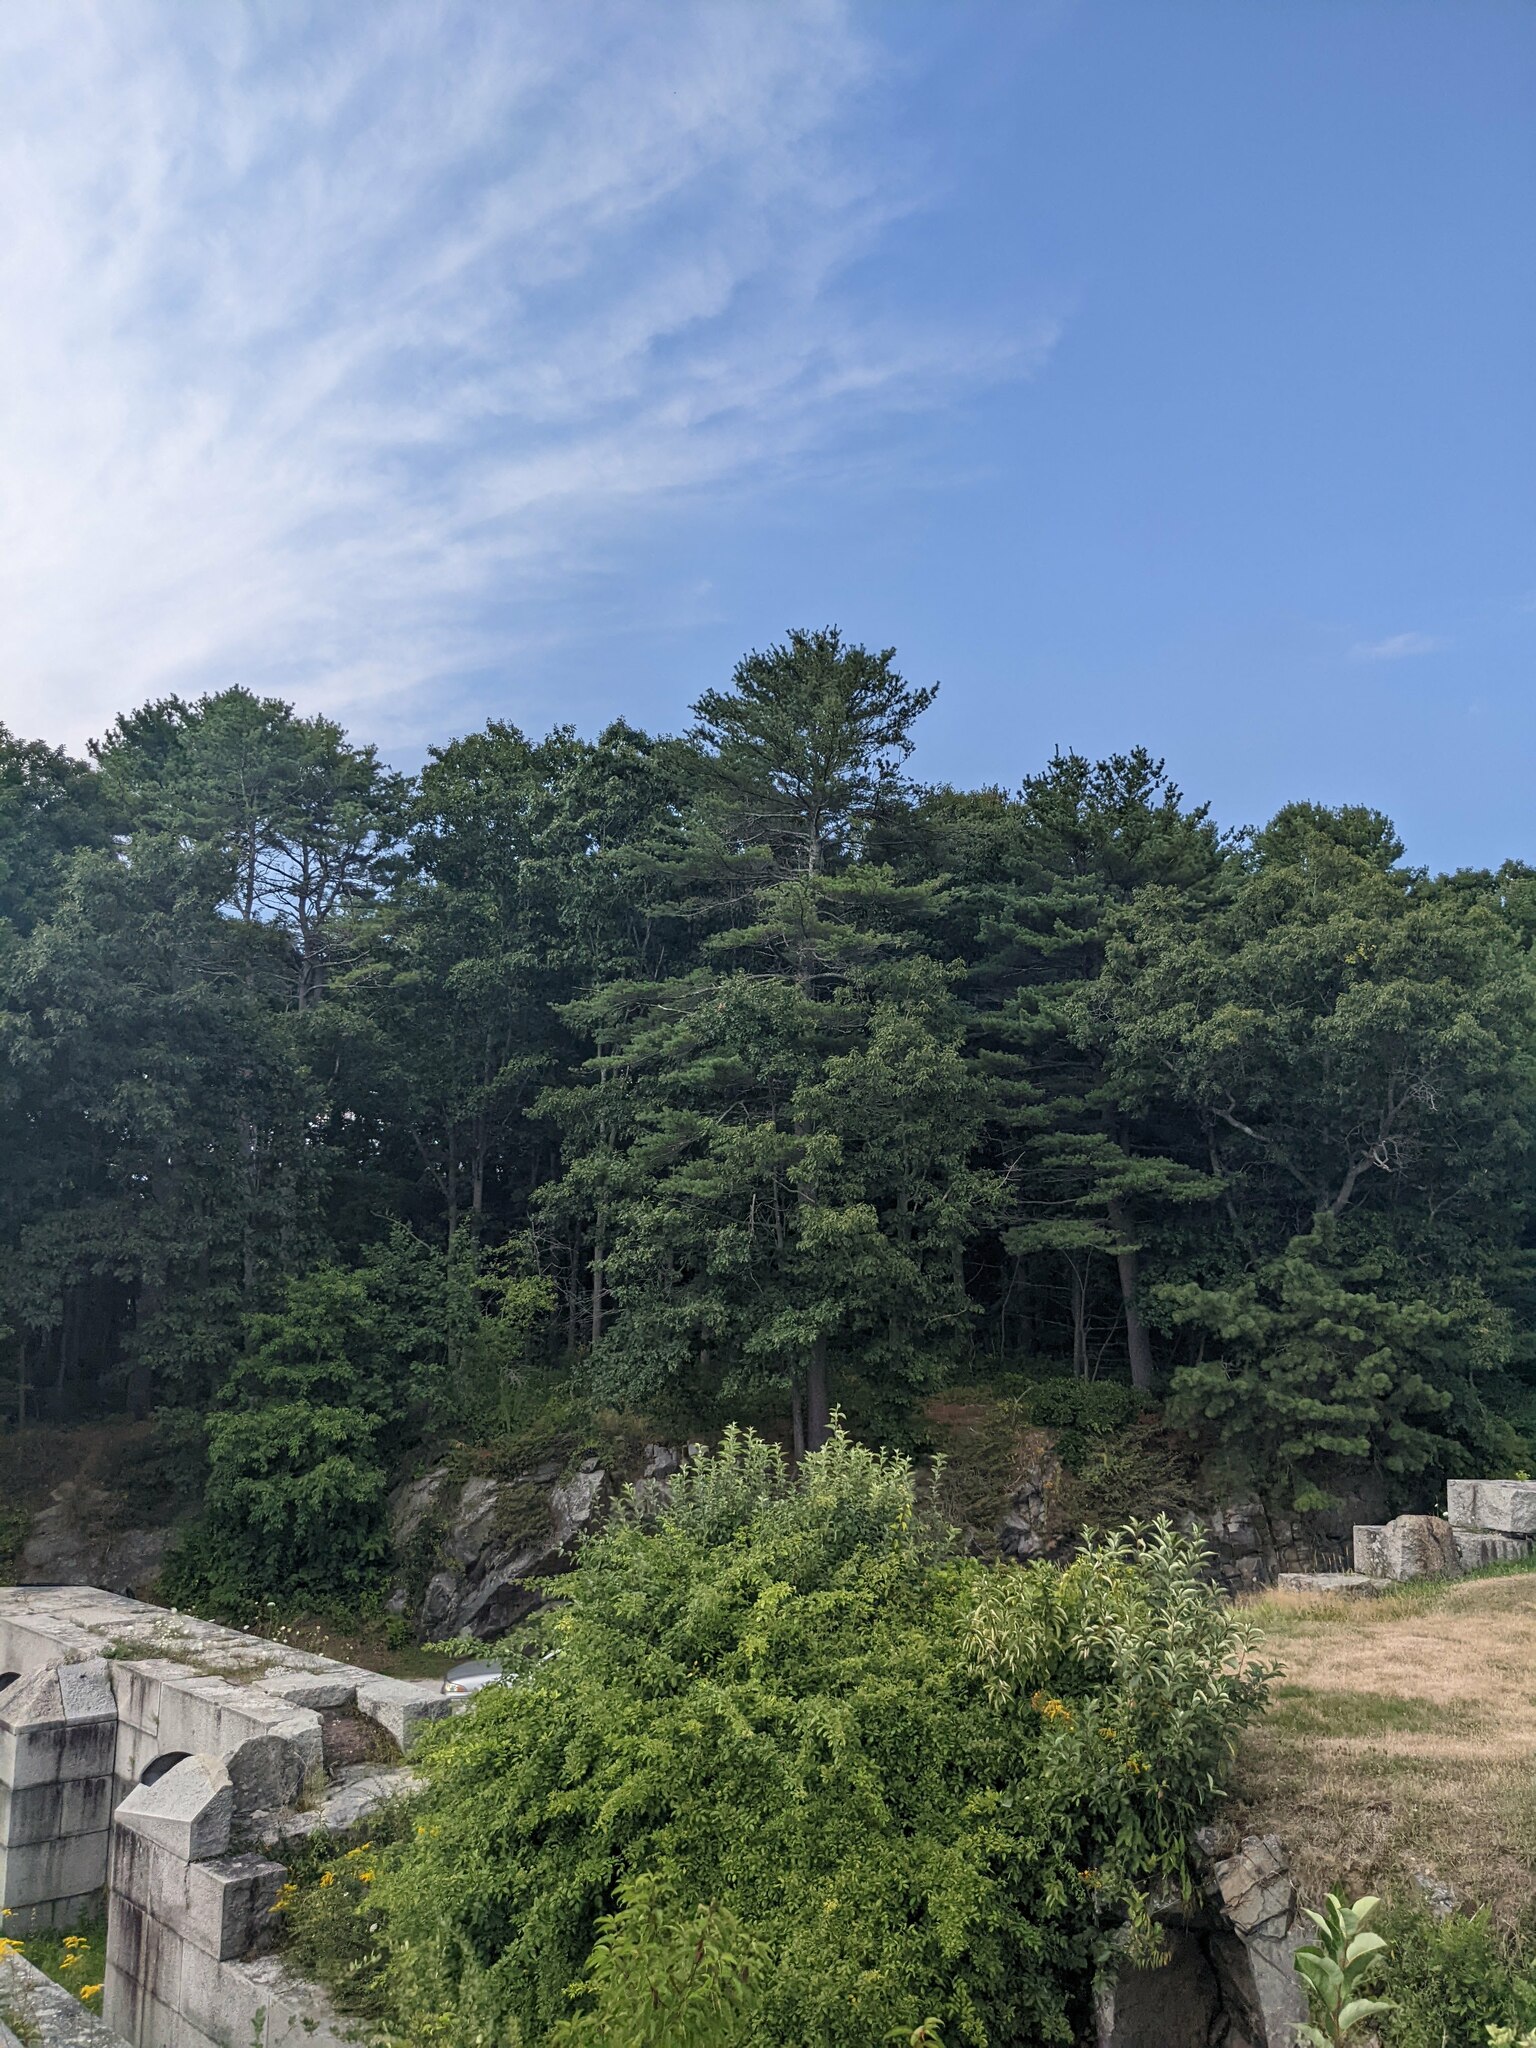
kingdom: Plantae
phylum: Tracheophyta
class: Pinopsida
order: Pinales
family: Pinaceae
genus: Pinus
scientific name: Pinus strobus
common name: Weymouth pine
